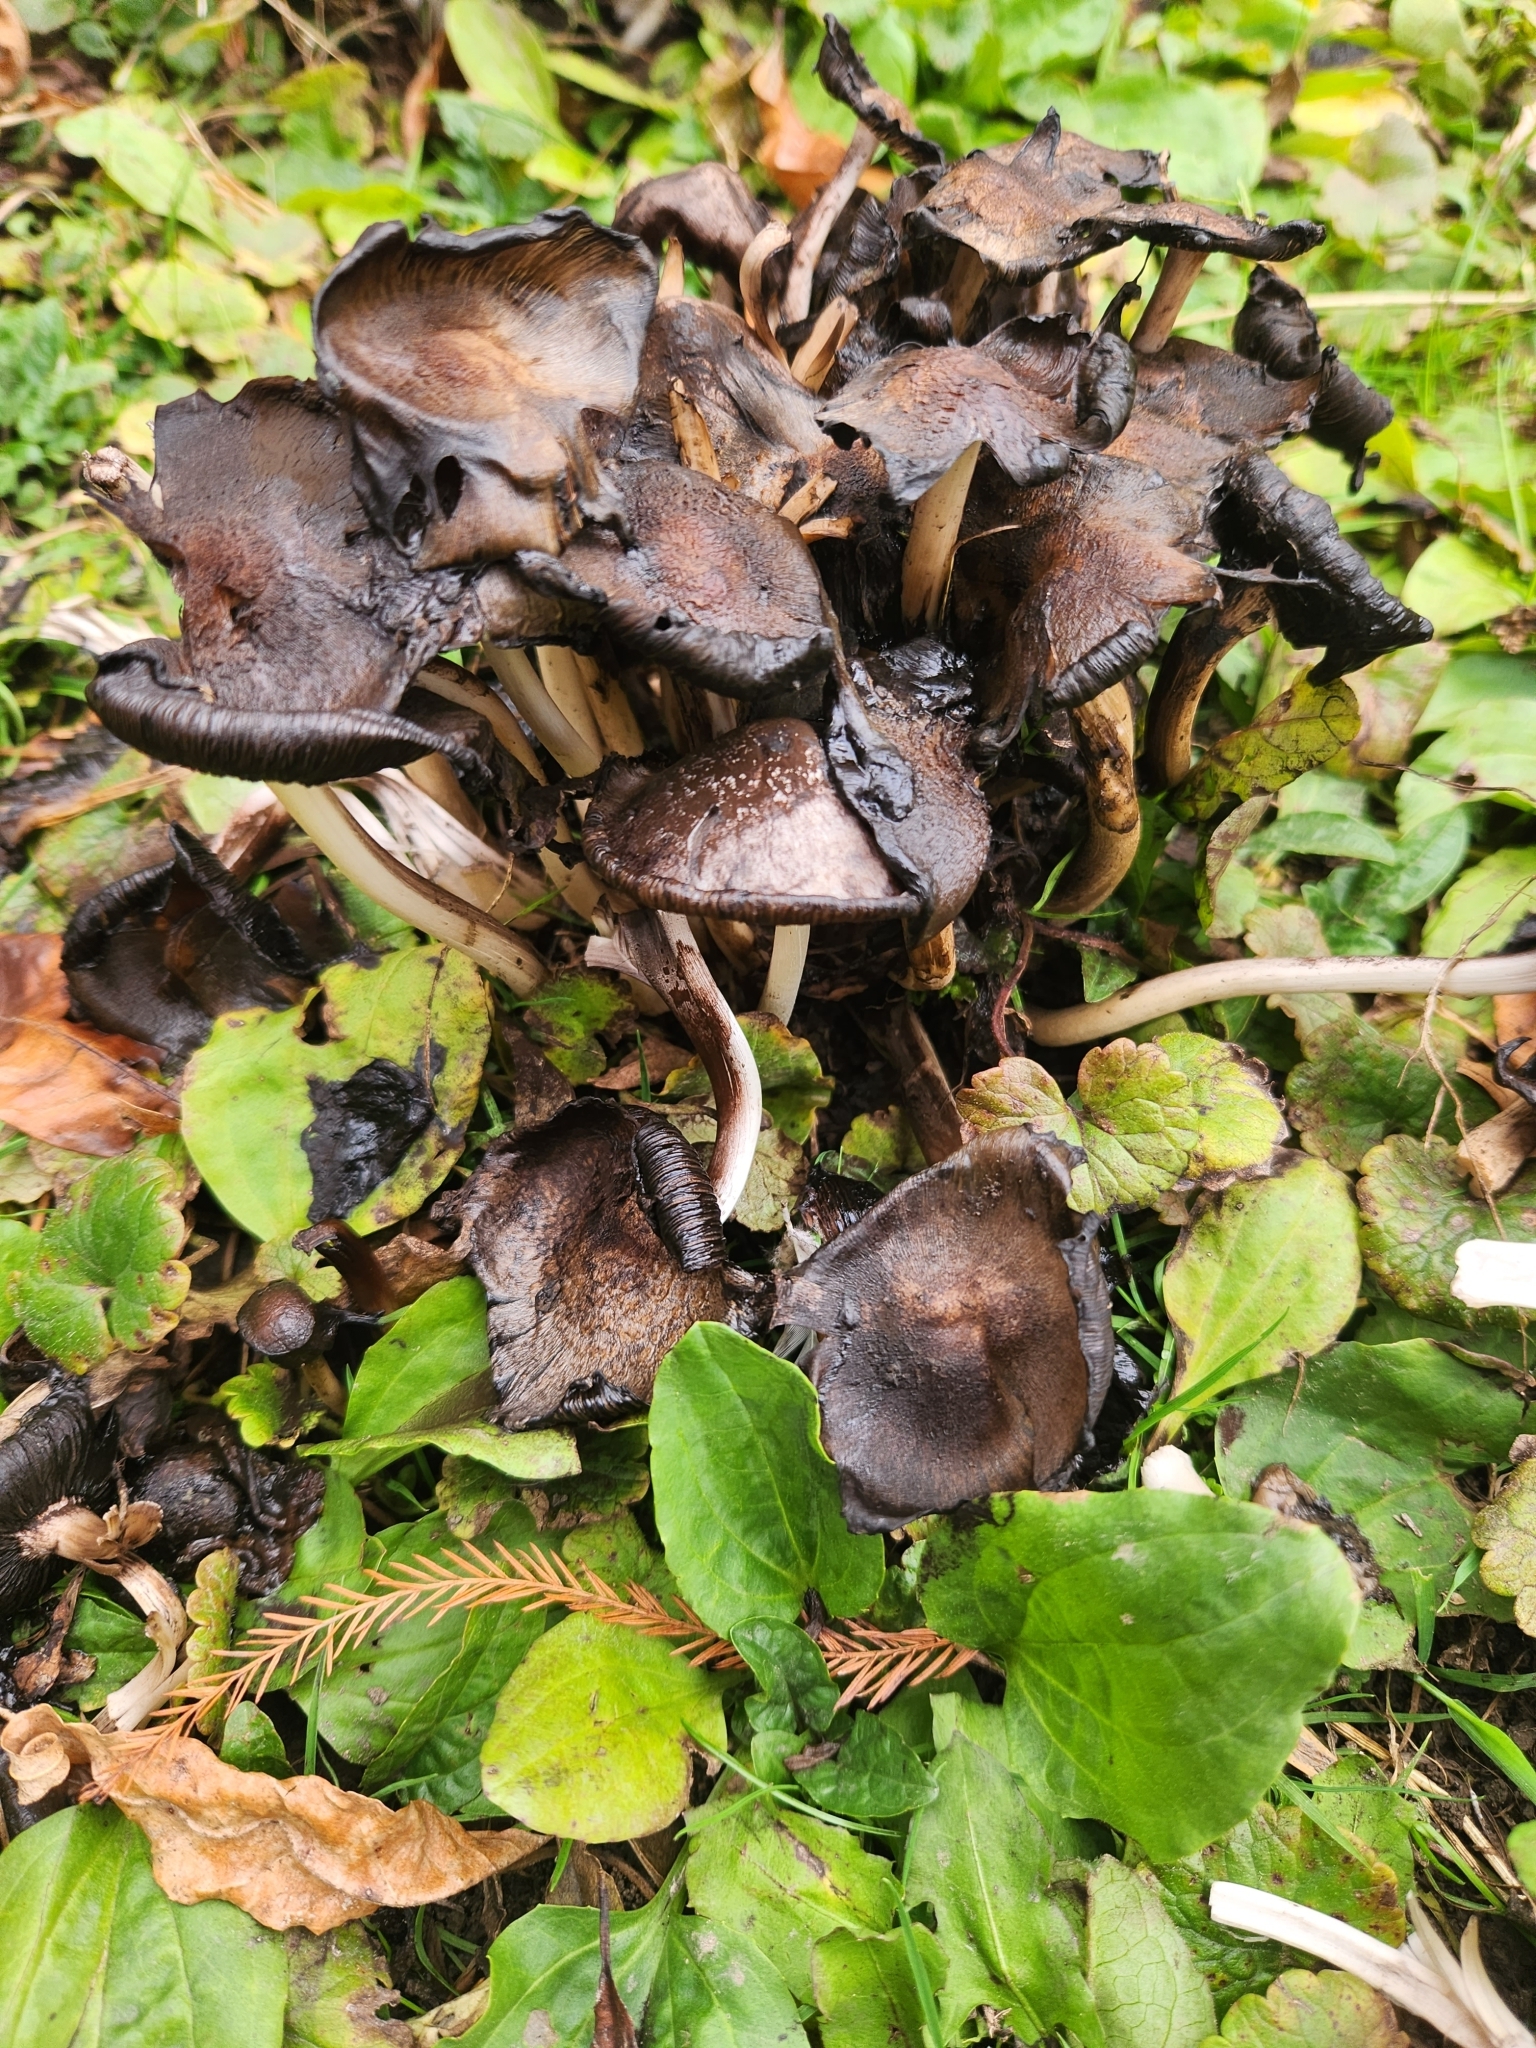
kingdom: Fungi
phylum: Basidiomycota
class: Agaricomycetes
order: Agaricales
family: Psathyrellaceae
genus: Coprinopsis
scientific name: Coprinopsis atramentaria
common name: Common ink-cap
